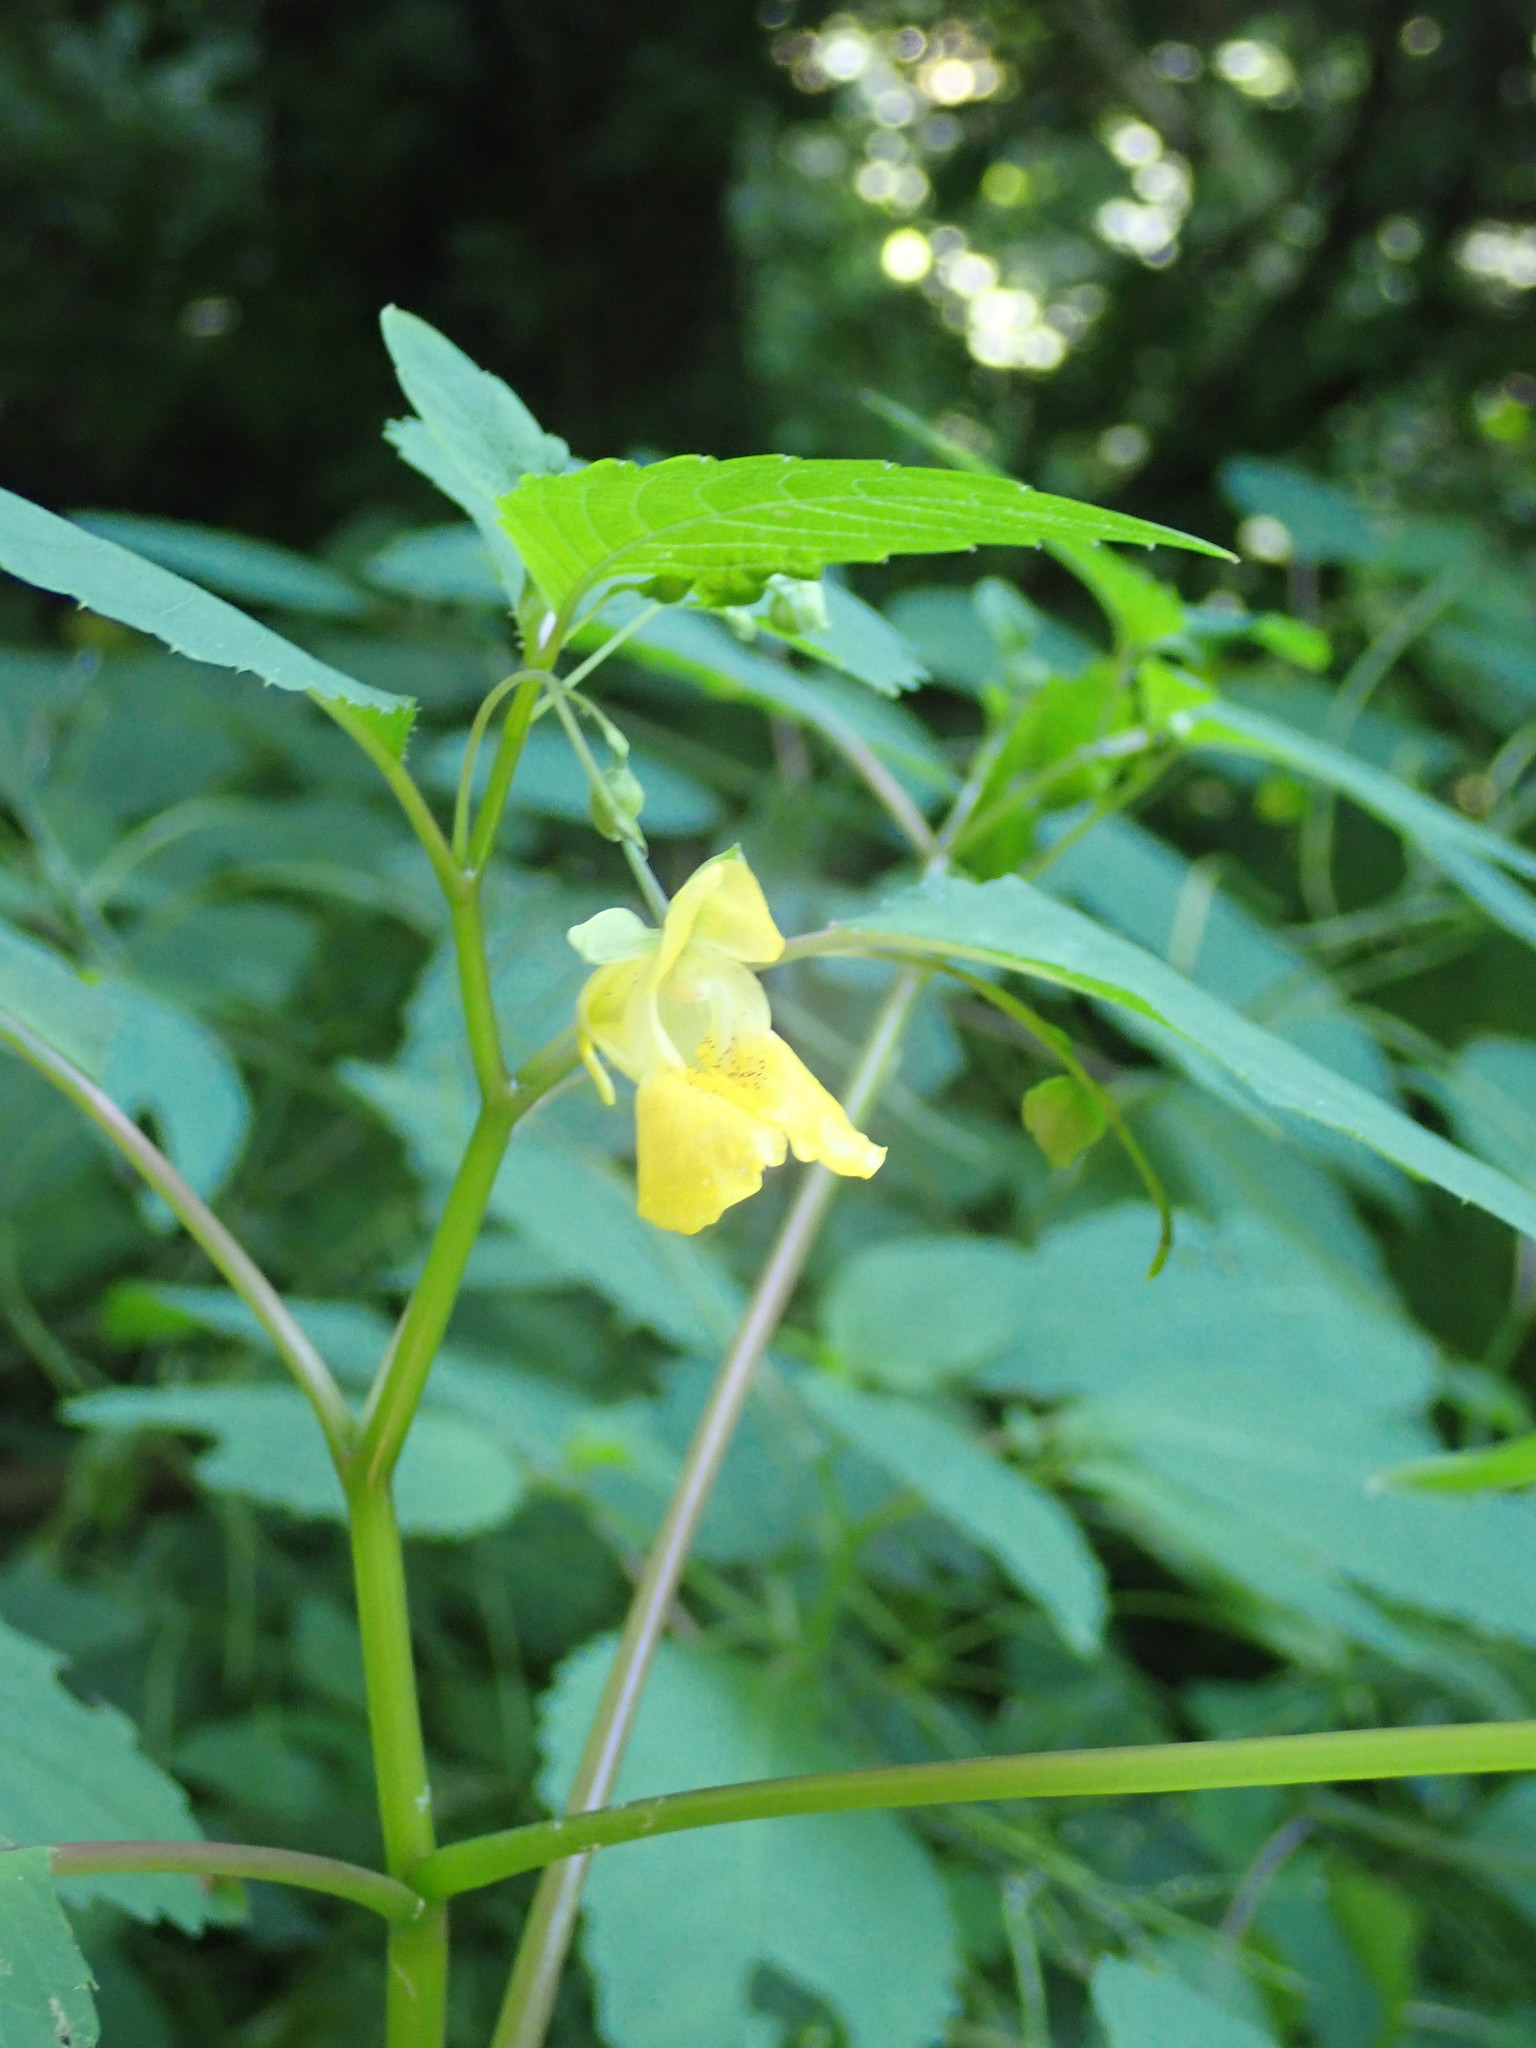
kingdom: Plantae
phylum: Tracheophyta
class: Magnoliopsida
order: Ericales
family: Balsaminaceae
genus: Impatiens
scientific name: Impatiens pallida
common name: Pale snapweed
